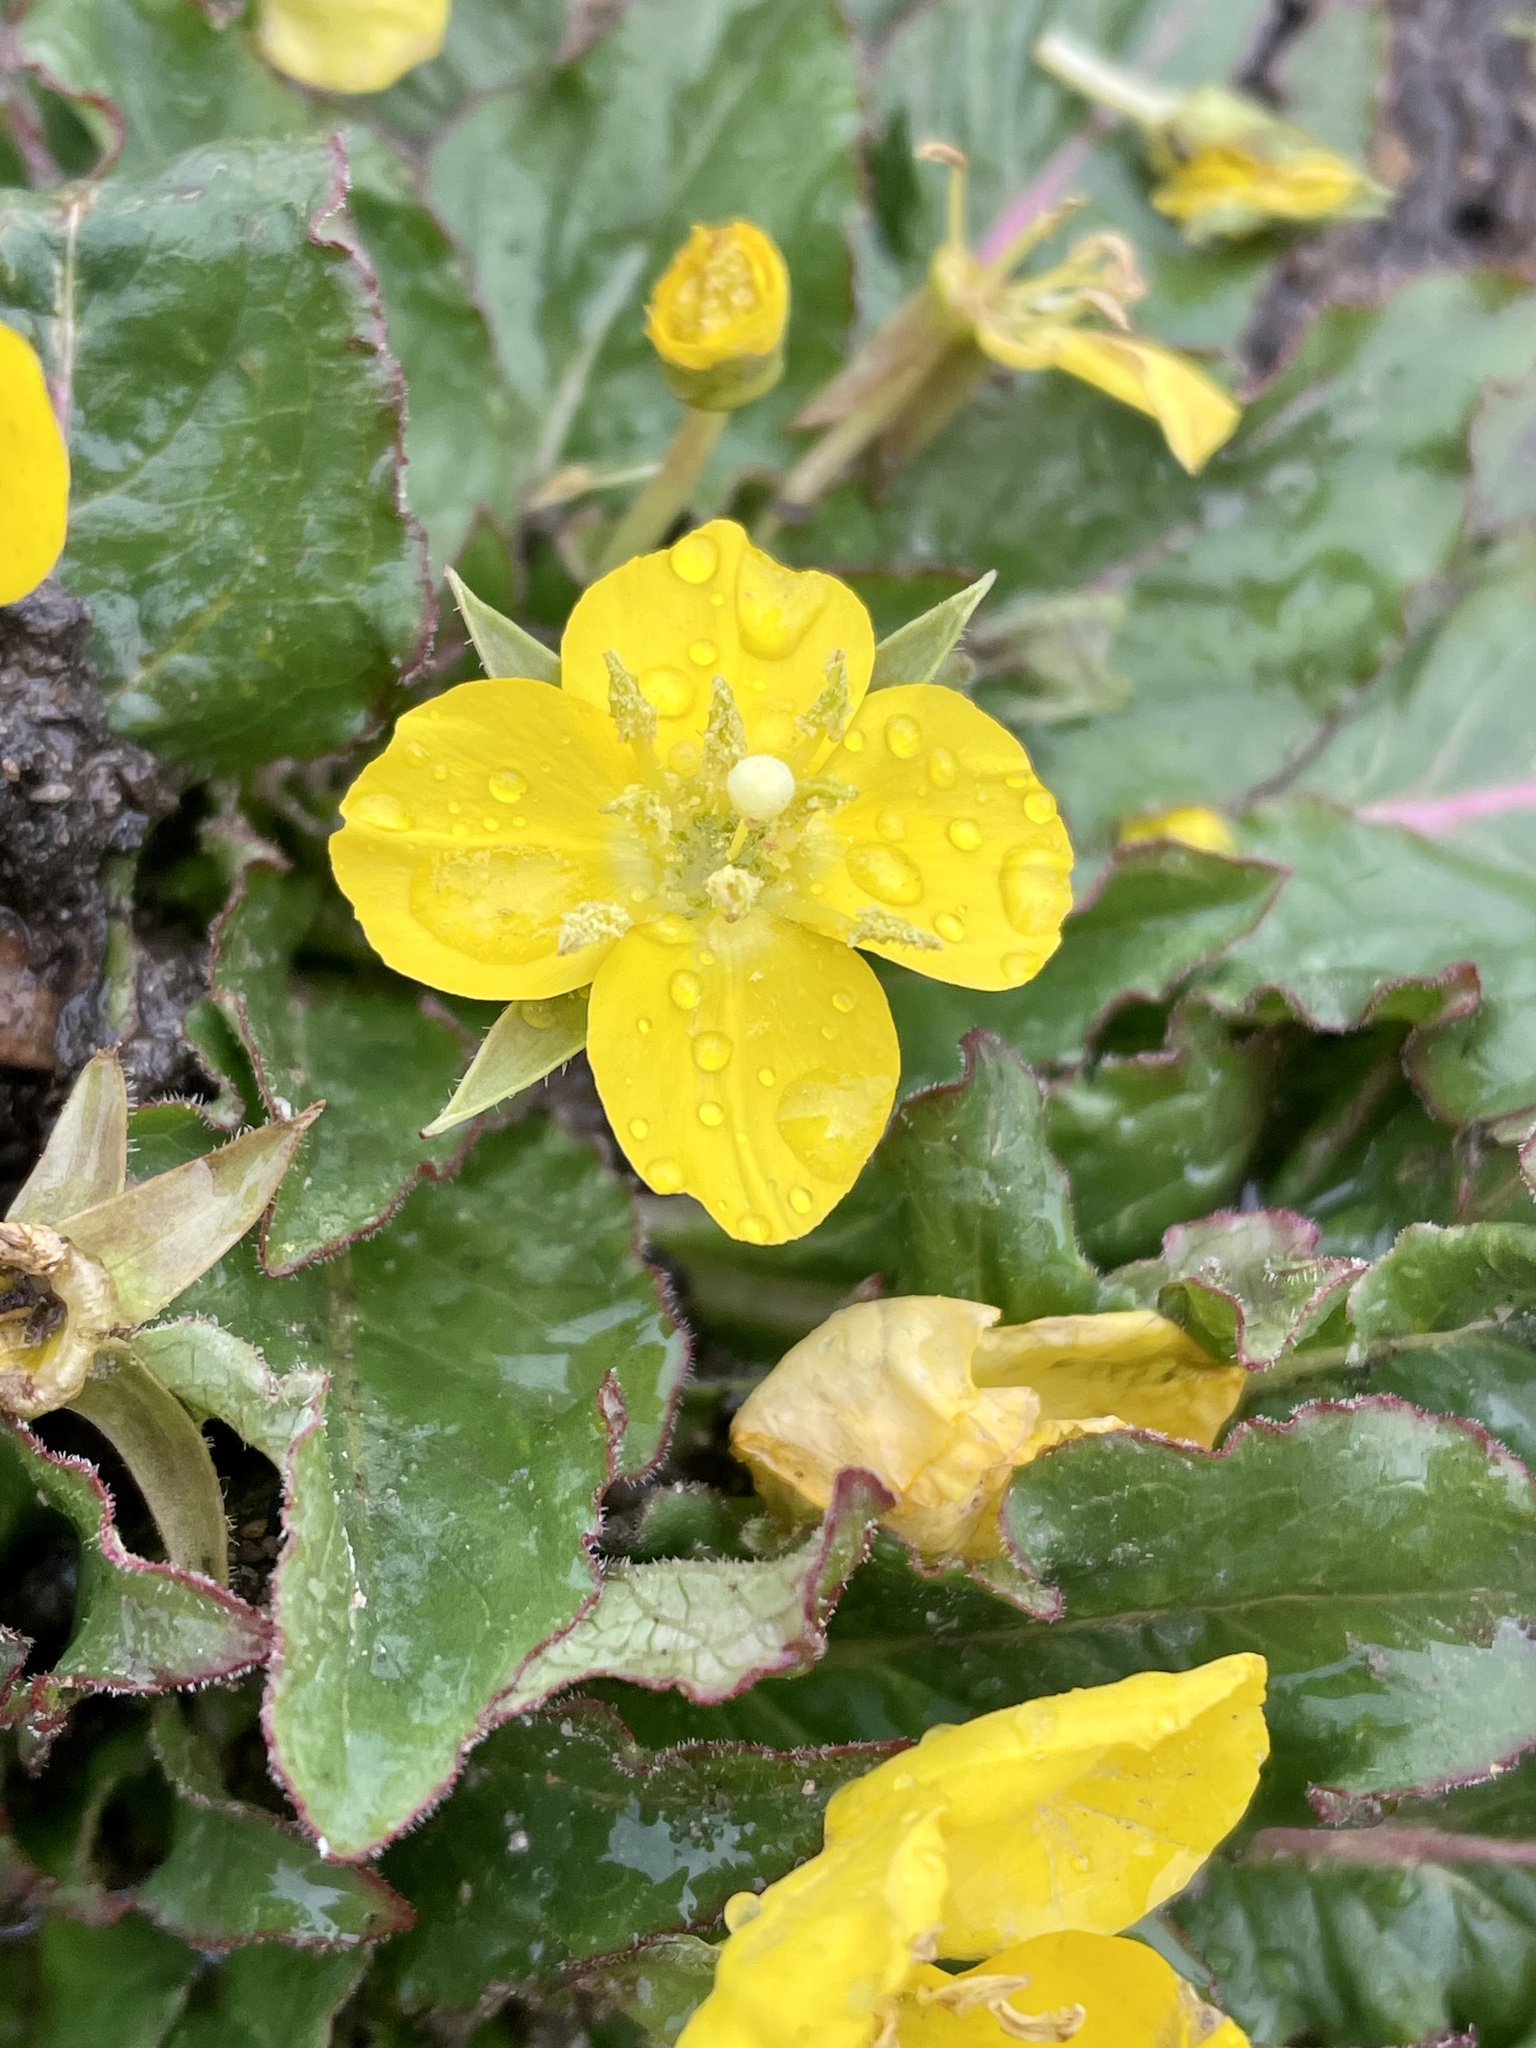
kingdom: Plantae
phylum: Tracheophyta
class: Magnoliopsida
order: Myrtales
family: Onagraceae
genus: Taraxia
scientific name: Taraxia ovata
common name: Goldeneggs
